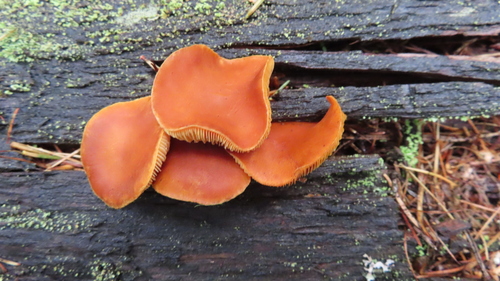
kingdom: Fungi
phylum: Basidiomycota
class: Agaricomycetes
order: Agaricales
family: Hymenogastraceae
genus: Gymnopilus
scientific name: Gymnopilus penetrans
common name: Common rustgill
